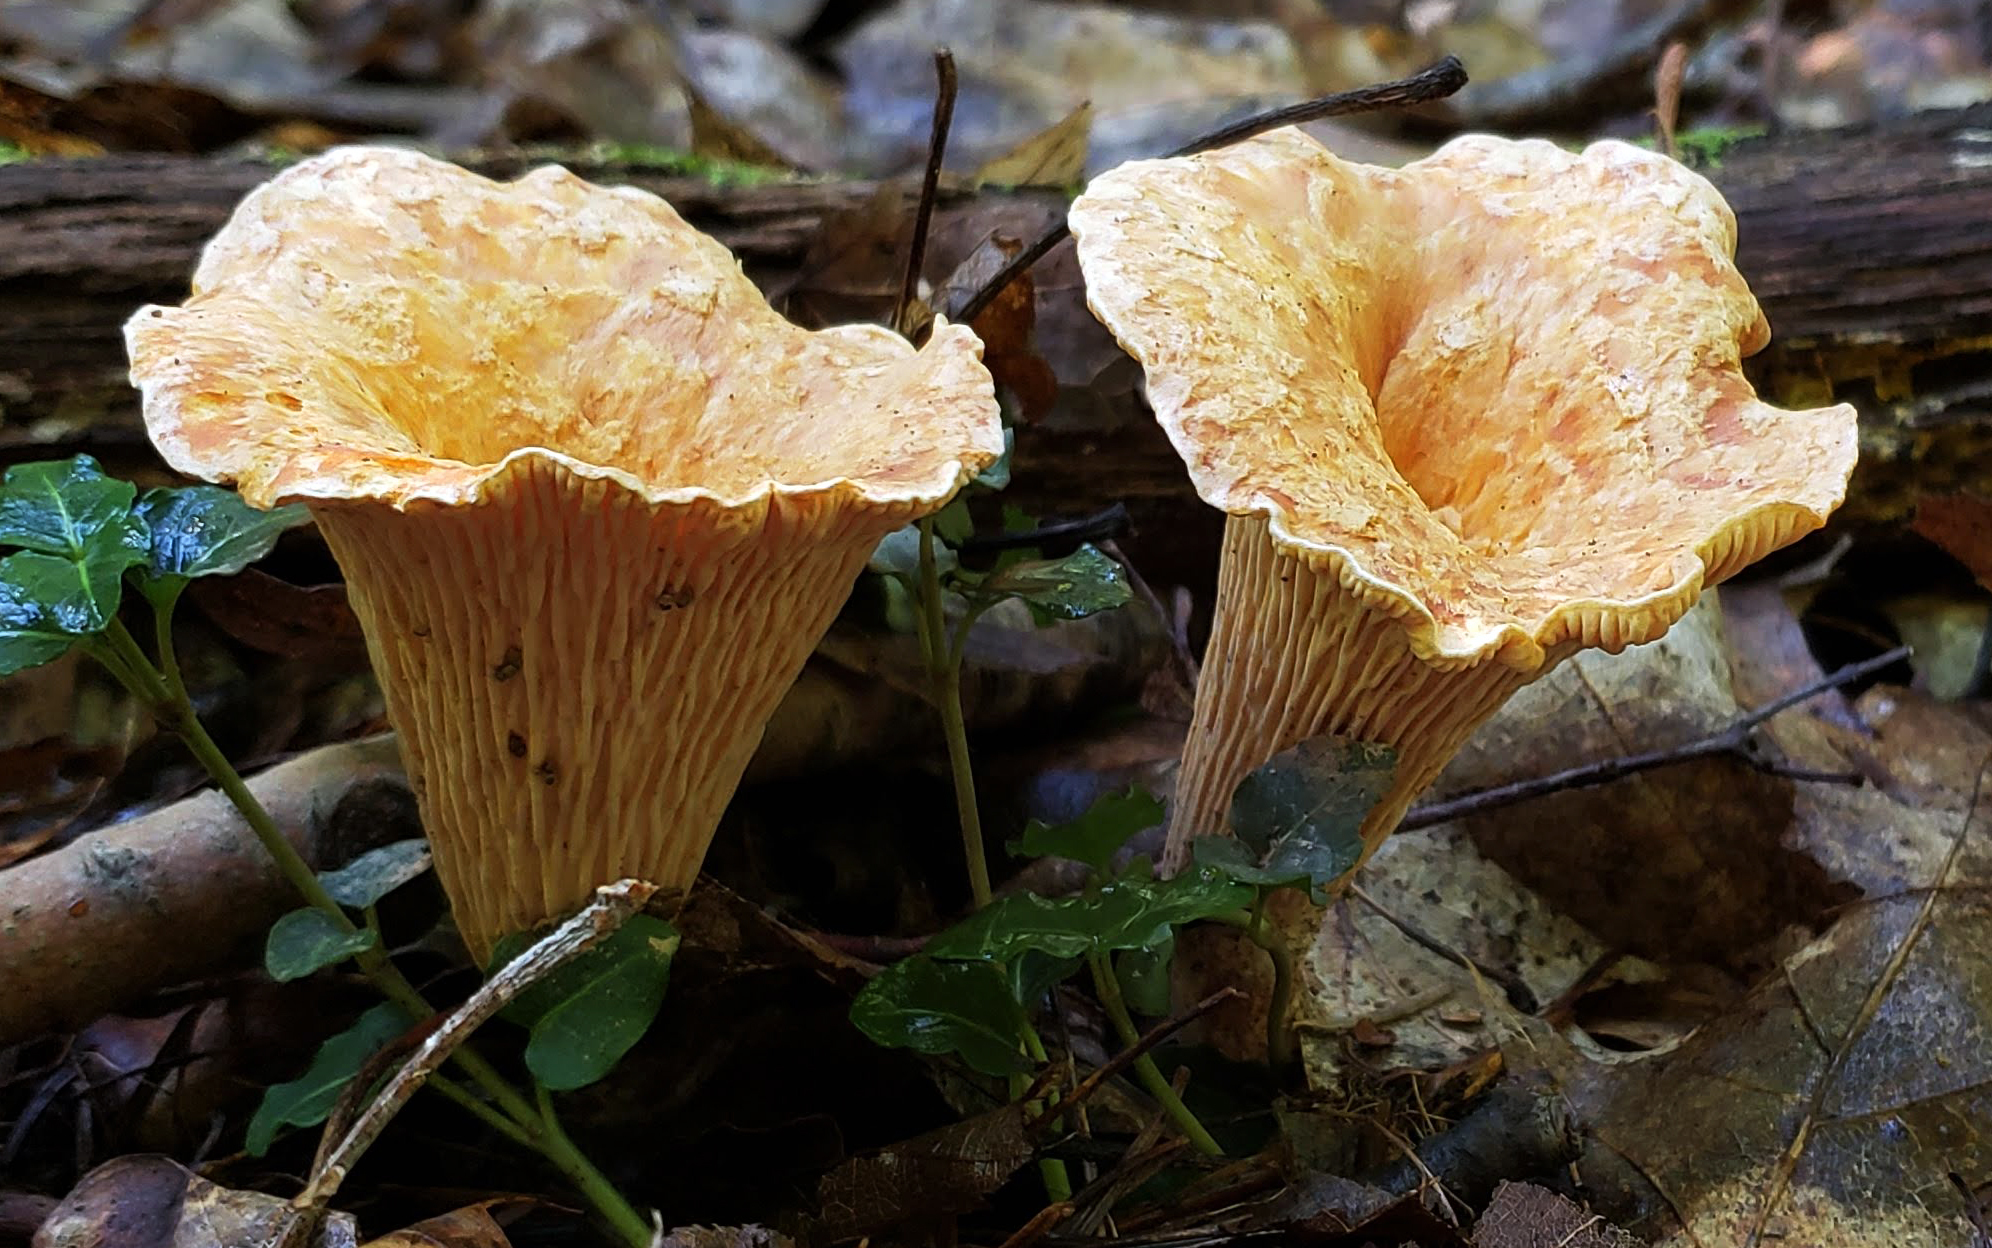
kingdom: Fungi
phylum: Basidiomycota
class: Agaricomycetes
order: Gomphales
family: Gomphaceae
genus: Turbinellus
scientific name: Turbinellus floccosus
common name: Scaly chanterelle
